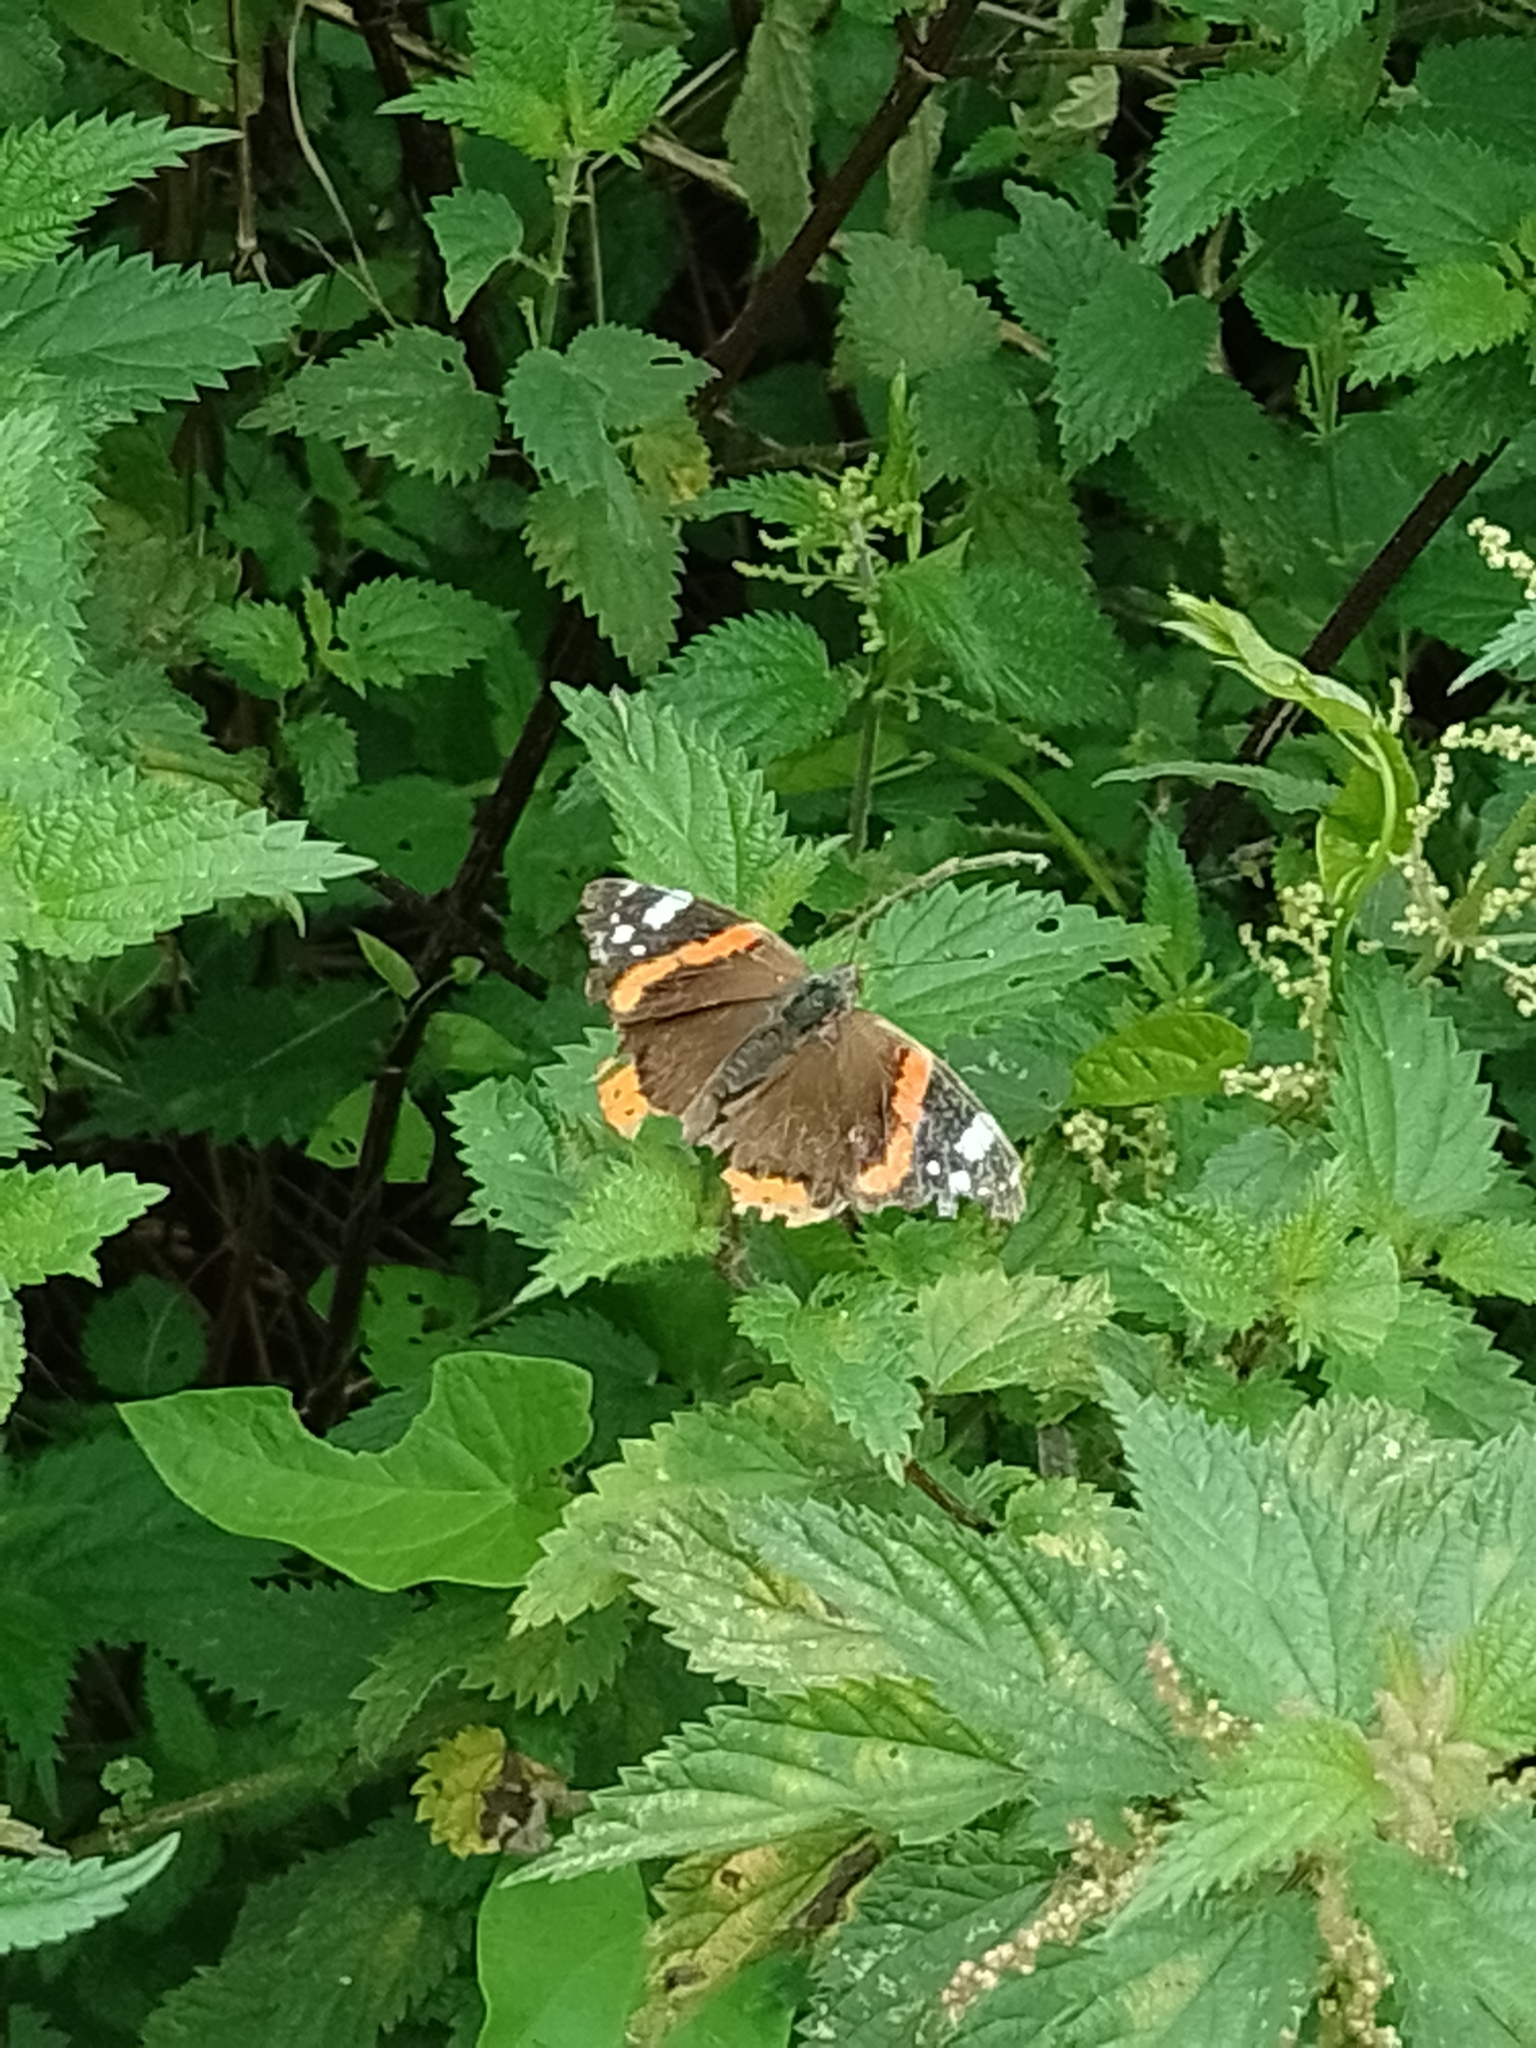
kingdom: Animalia
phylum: Arthropoda
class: Insecta
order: Lepidoptera
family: Nymphalidae
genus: Vanessa
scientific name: Vanessa atalanta
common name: Red admiral
